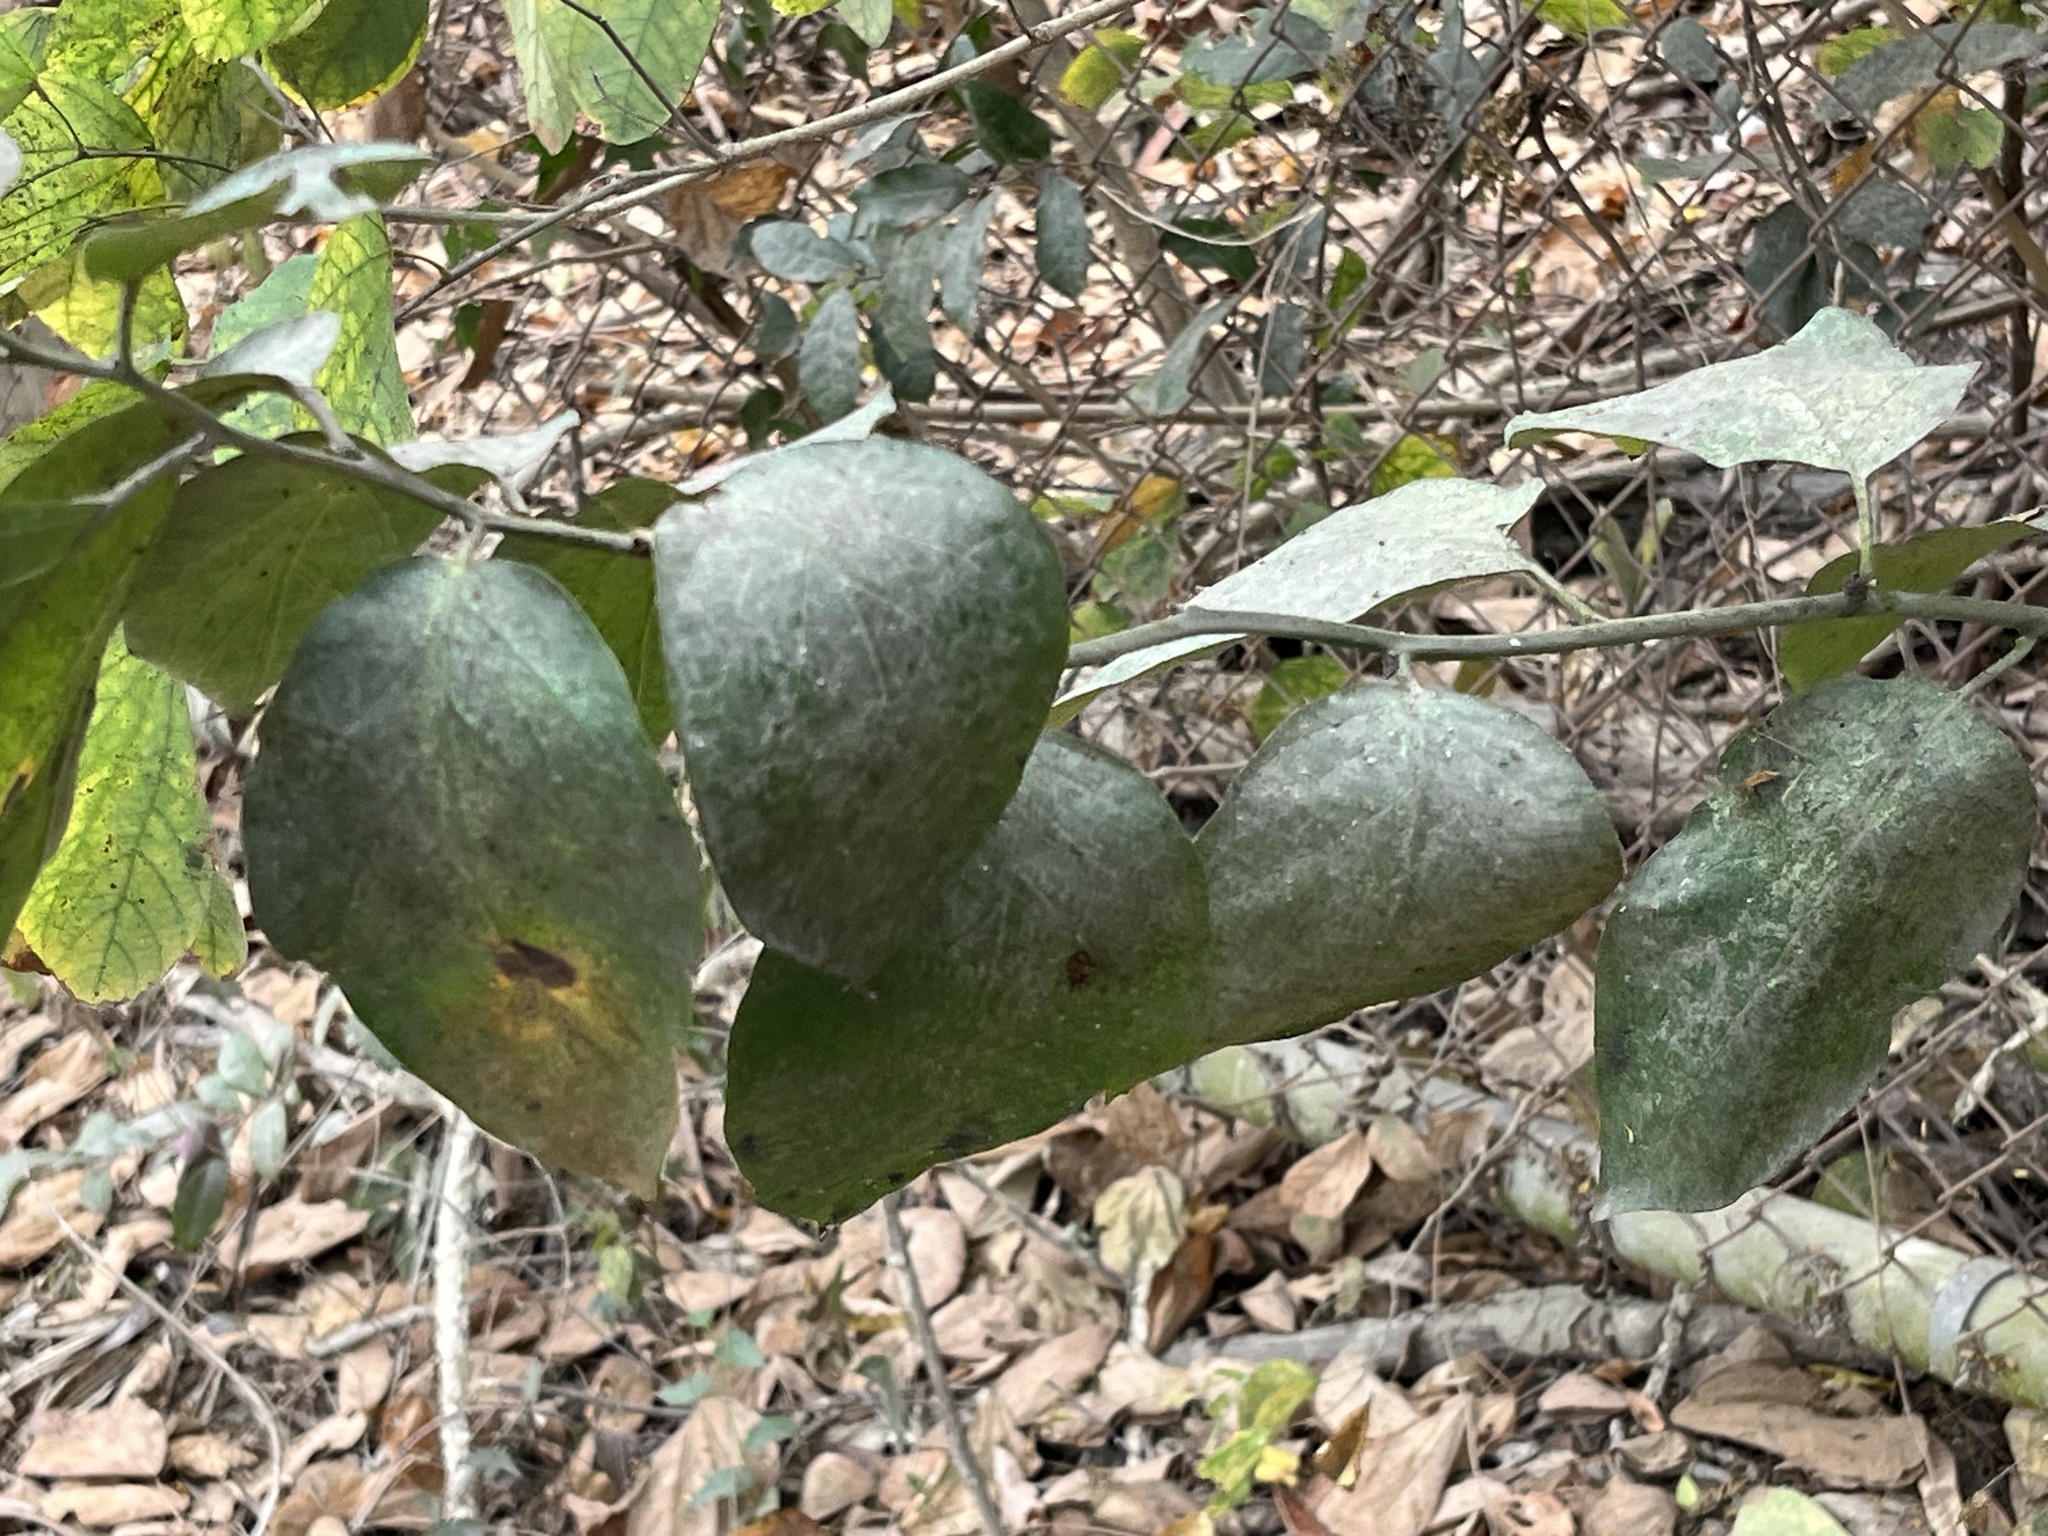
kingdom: Plantae
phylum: Tracheophyta
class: Magnoliopsida
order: Boraginales
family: Ehretiaceae
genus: Ehretia
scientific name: Ehretia resinosa
